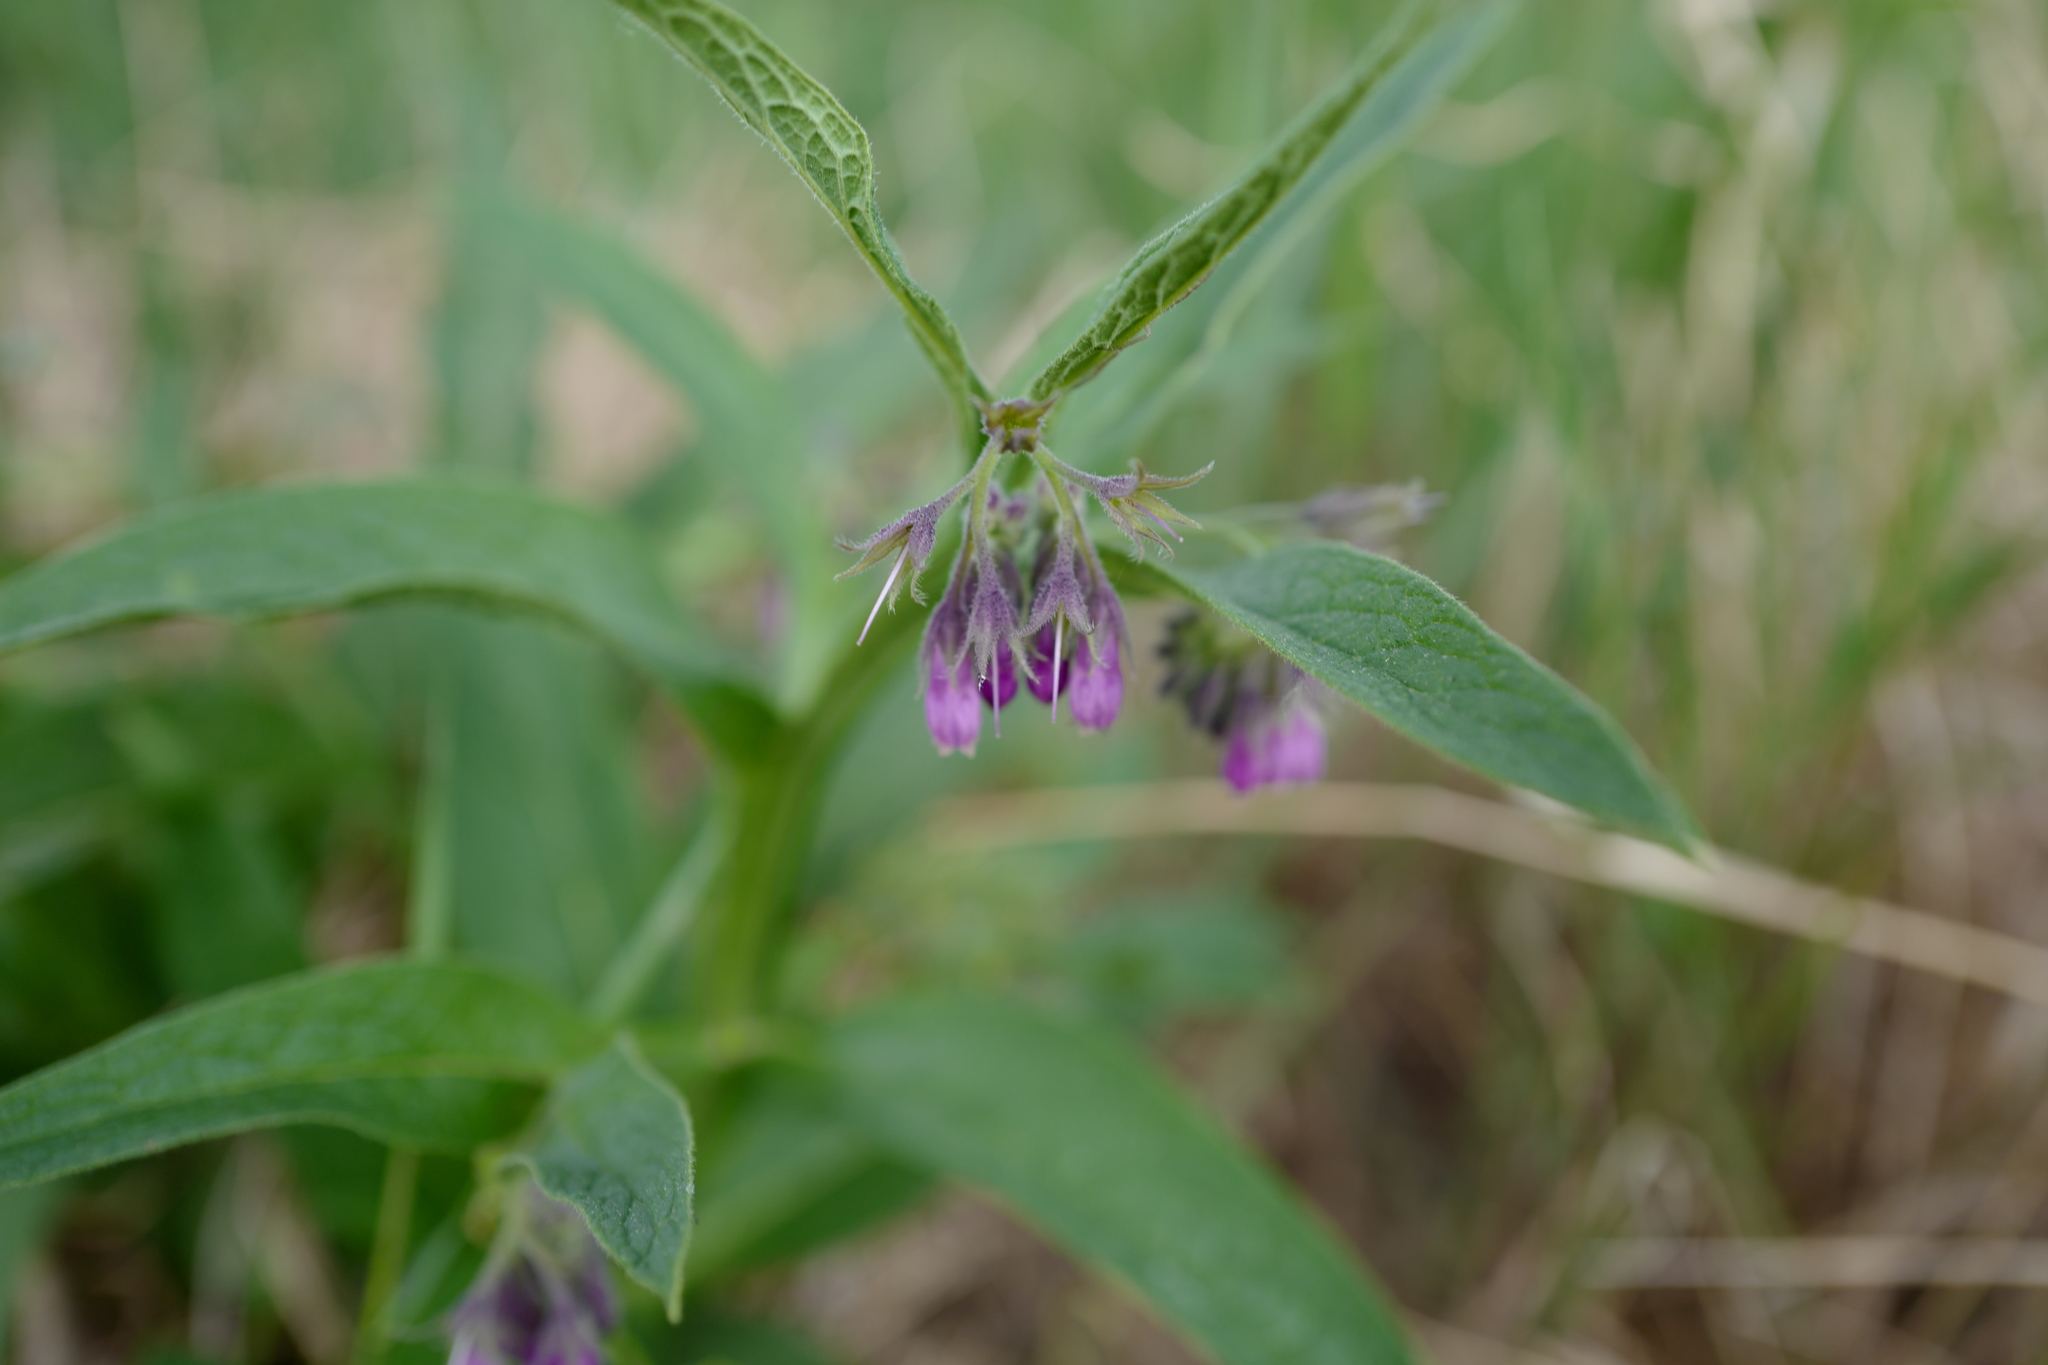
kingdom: Plantae
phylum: Tracheophyta
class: Magnoliopsida
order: Boraginales
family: Boraginaceae
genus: Symphytum
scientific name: Symphytum officinale
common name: Common comfrey
